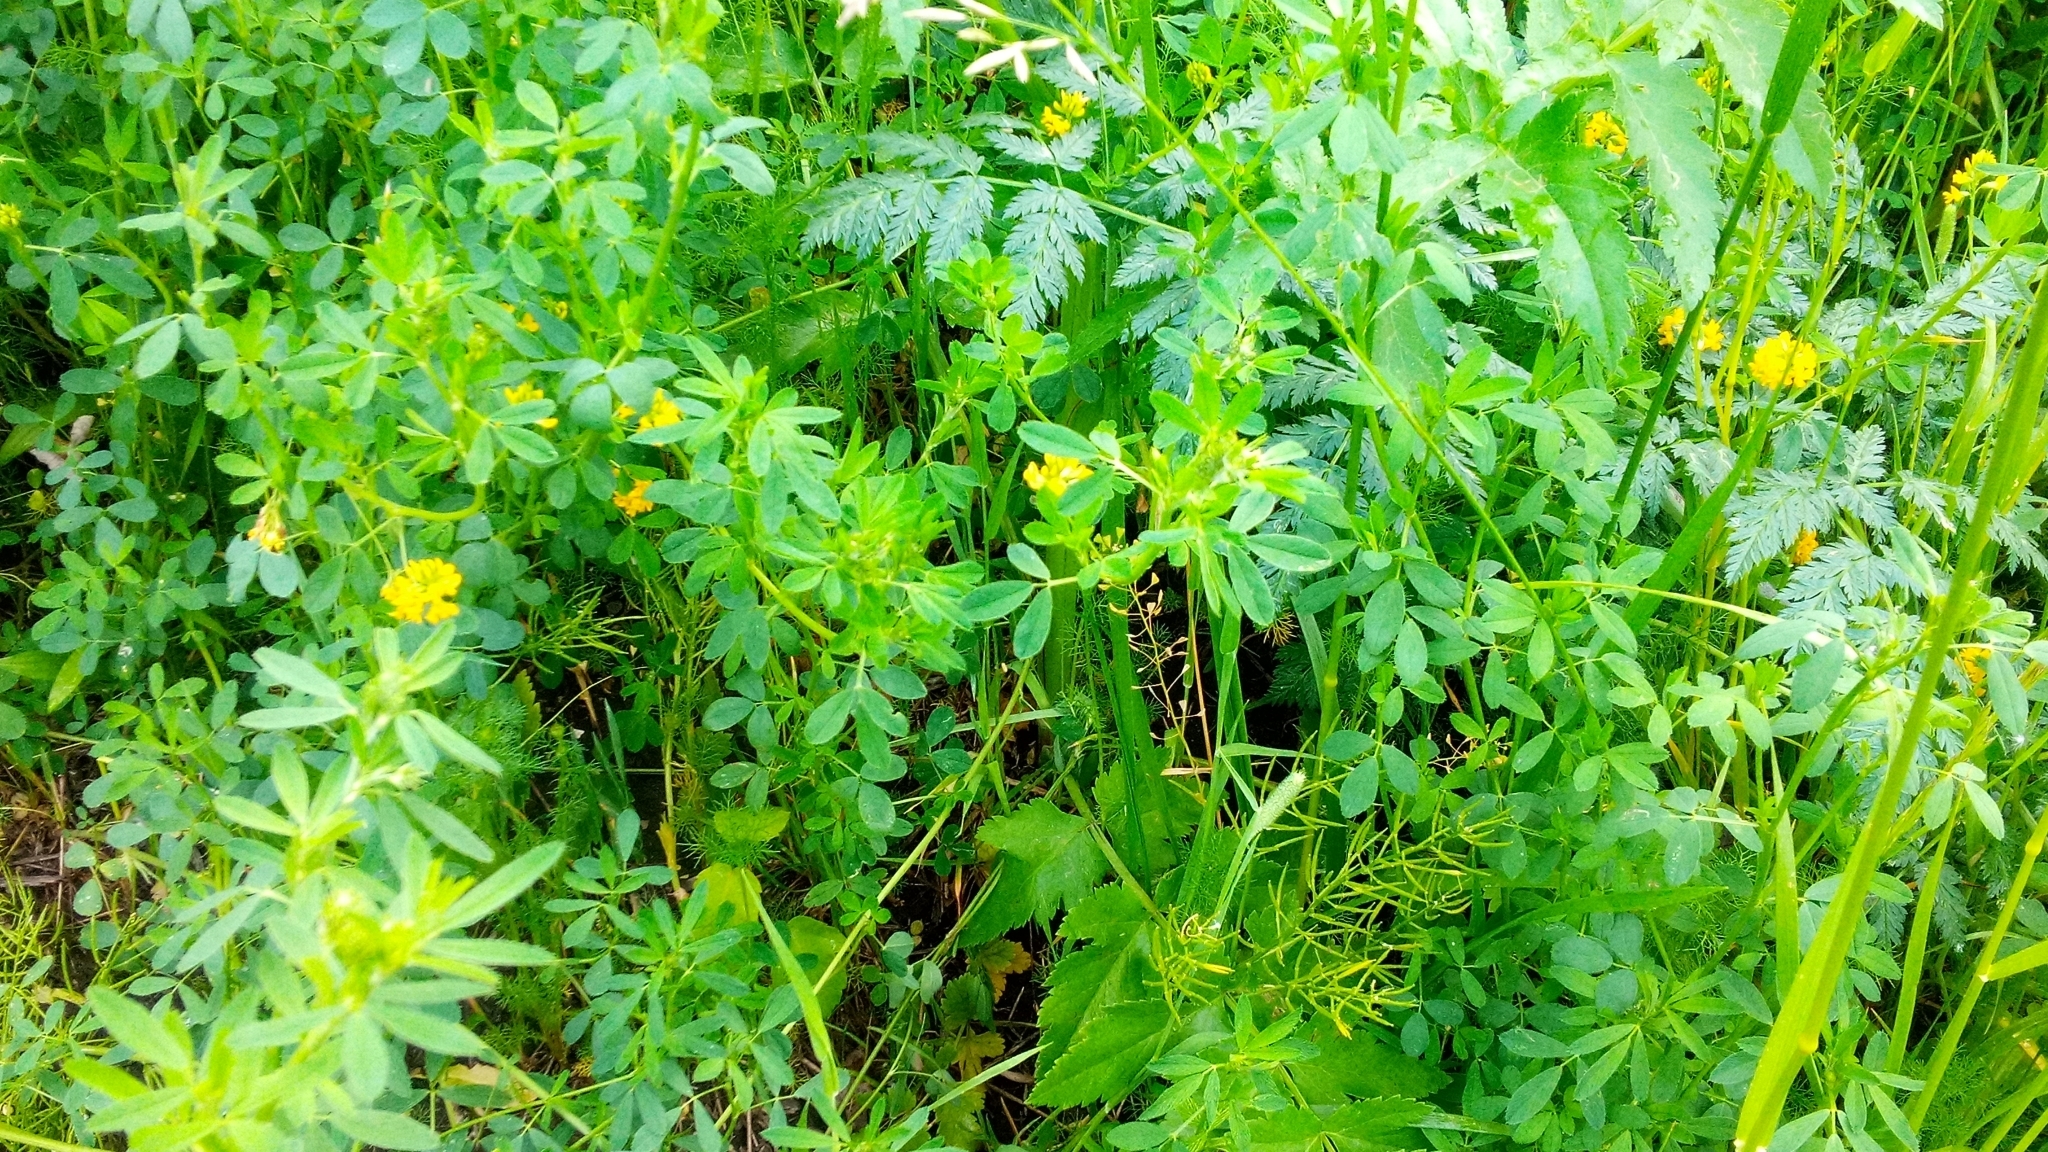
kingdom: Plantae
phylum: Tracheophyta
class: Magnoliopsida
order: Apiales
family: Apiaceae
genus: Pastinaca
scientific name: Pastinaca sativa
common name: Wild parsnip
